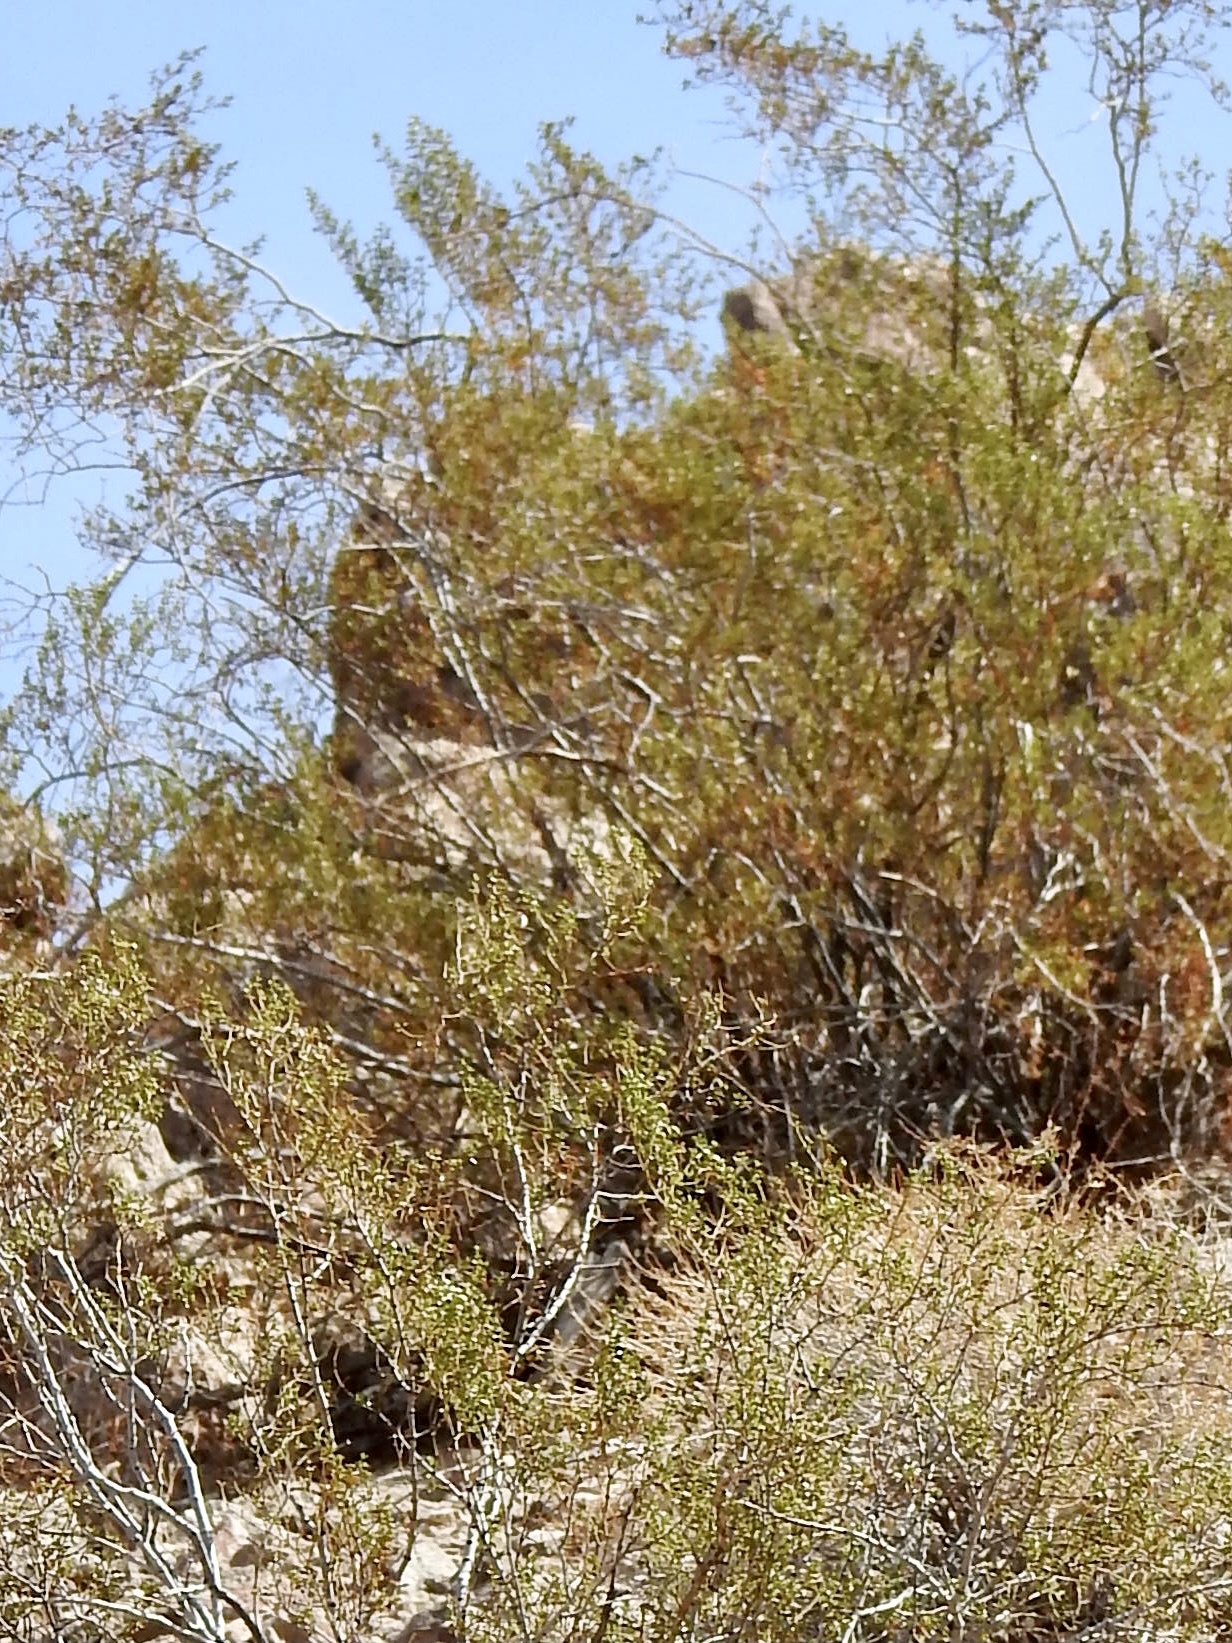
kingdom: Plantae
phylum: Tracheophyta
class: Magnoliopsida
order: Zygophyllales
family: Zygophyllaceae
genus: Larrea
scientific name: Larrea tridentata
